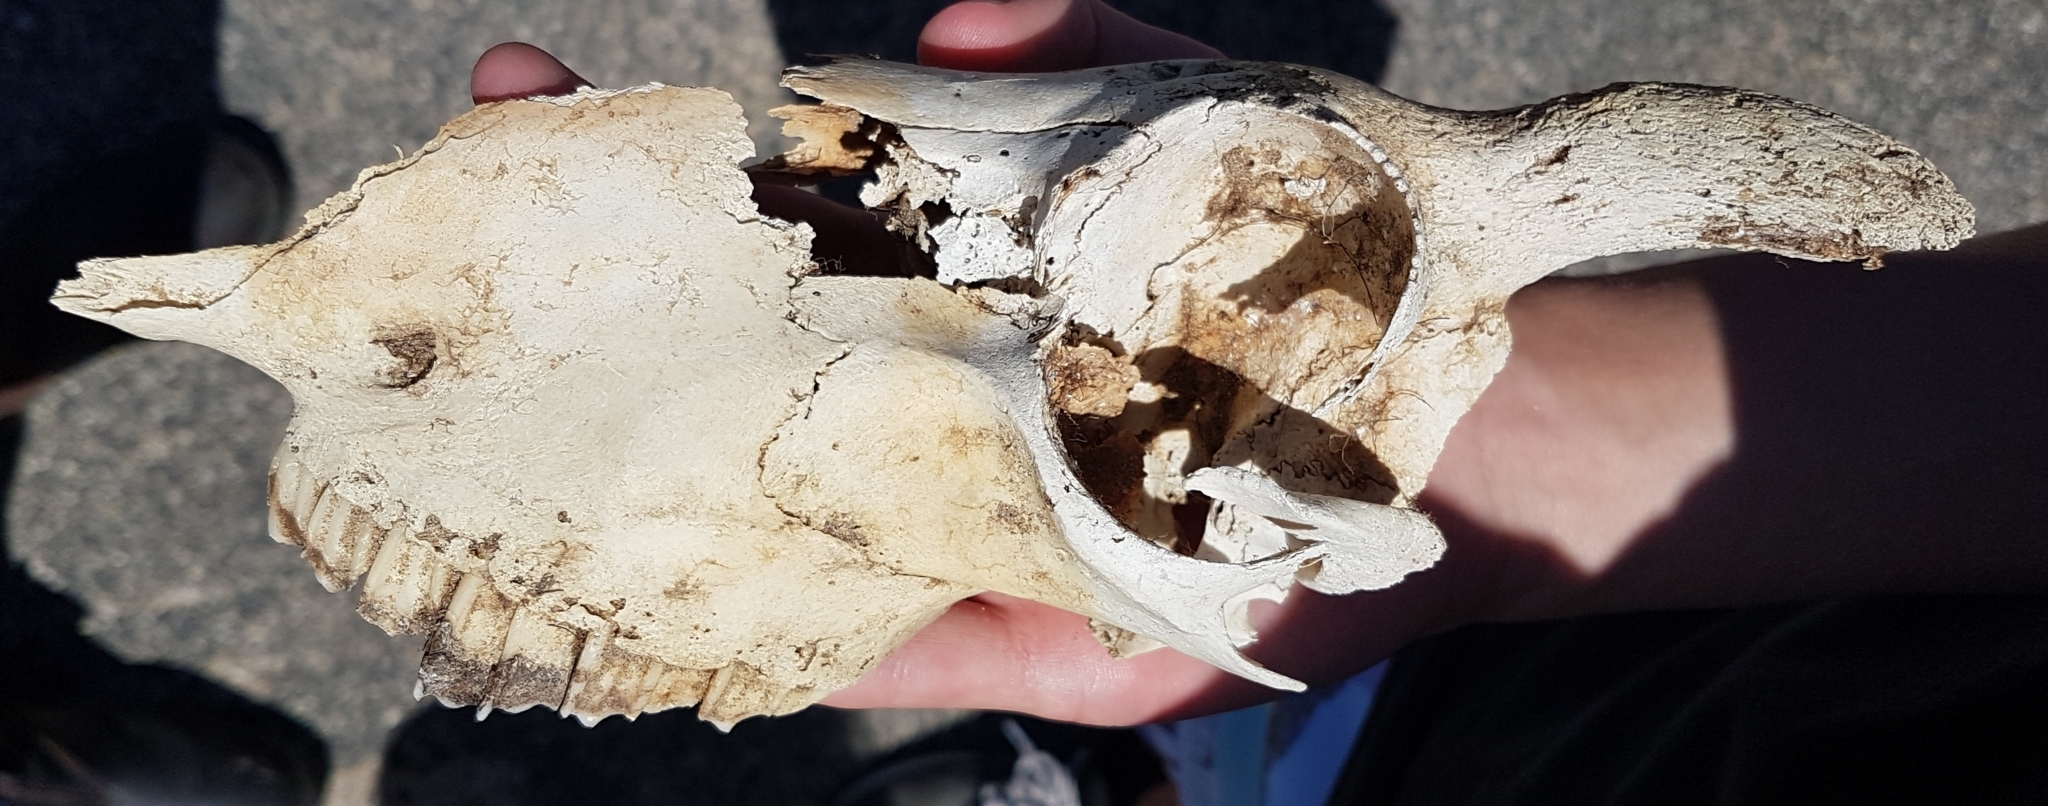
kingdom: Animalia
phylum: Chordata
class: Mammalia
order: Artiodactyla
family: Bovidae
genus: Ovis
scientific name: Ovis aries
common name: Domestic sheep
